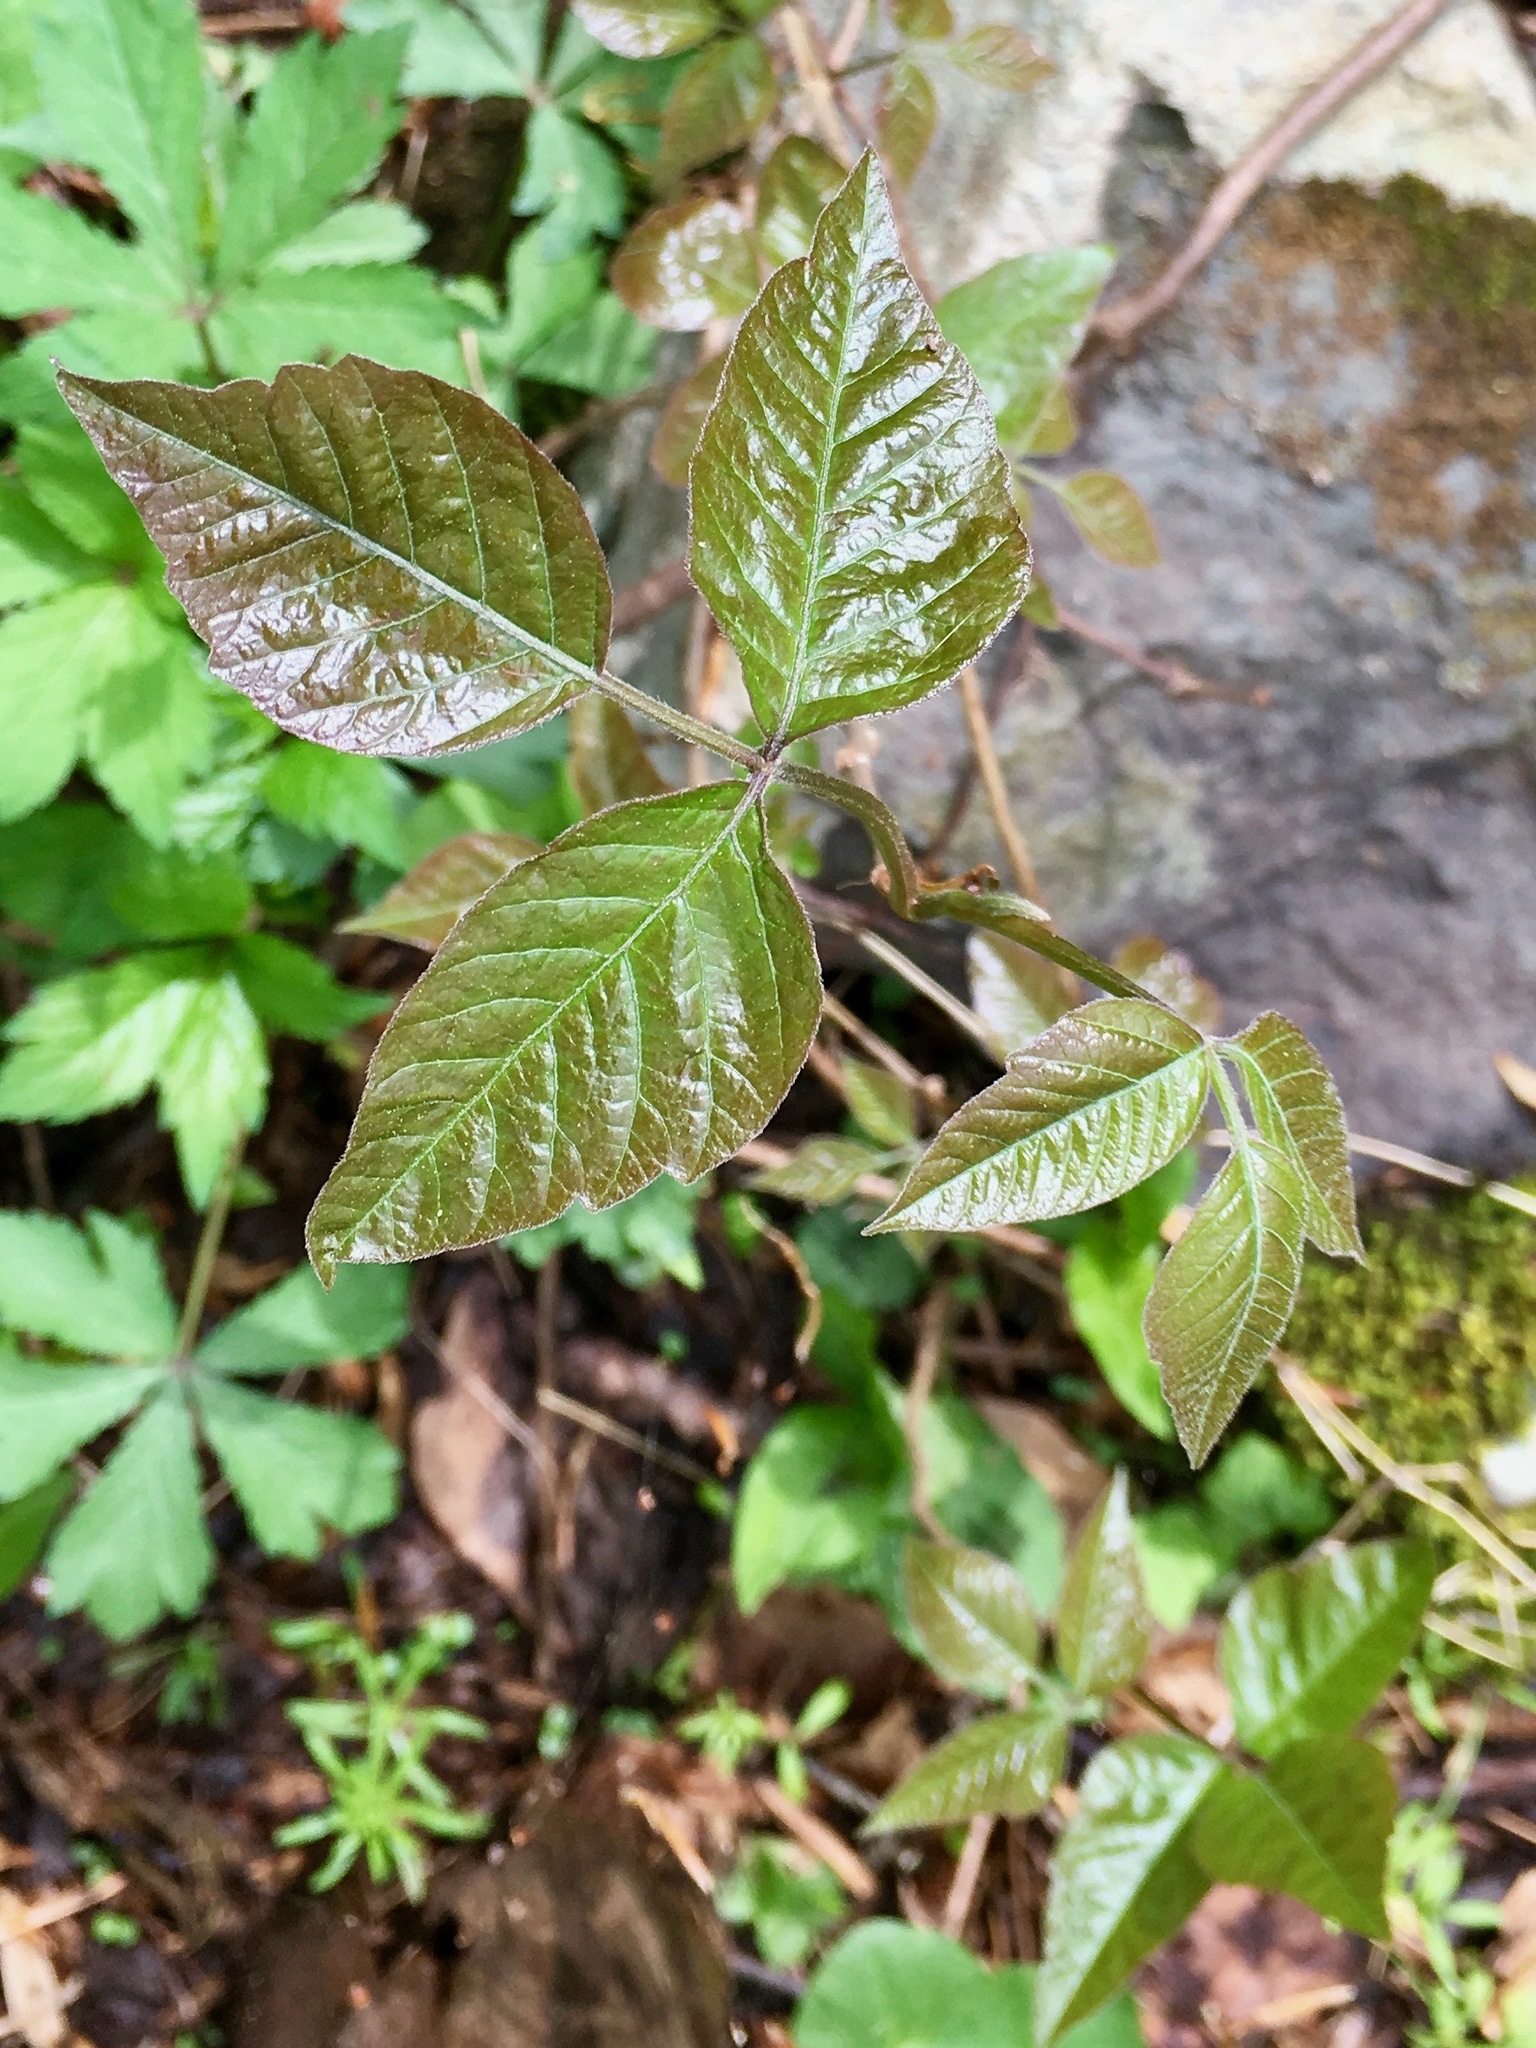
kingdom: Plantae
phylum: Tracheophyta
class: Magnoliopsida
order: Sapindales
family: Anacardiaceae
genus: Toxicodendron
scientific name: Toxicodendron radicans
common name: Poison ivy
